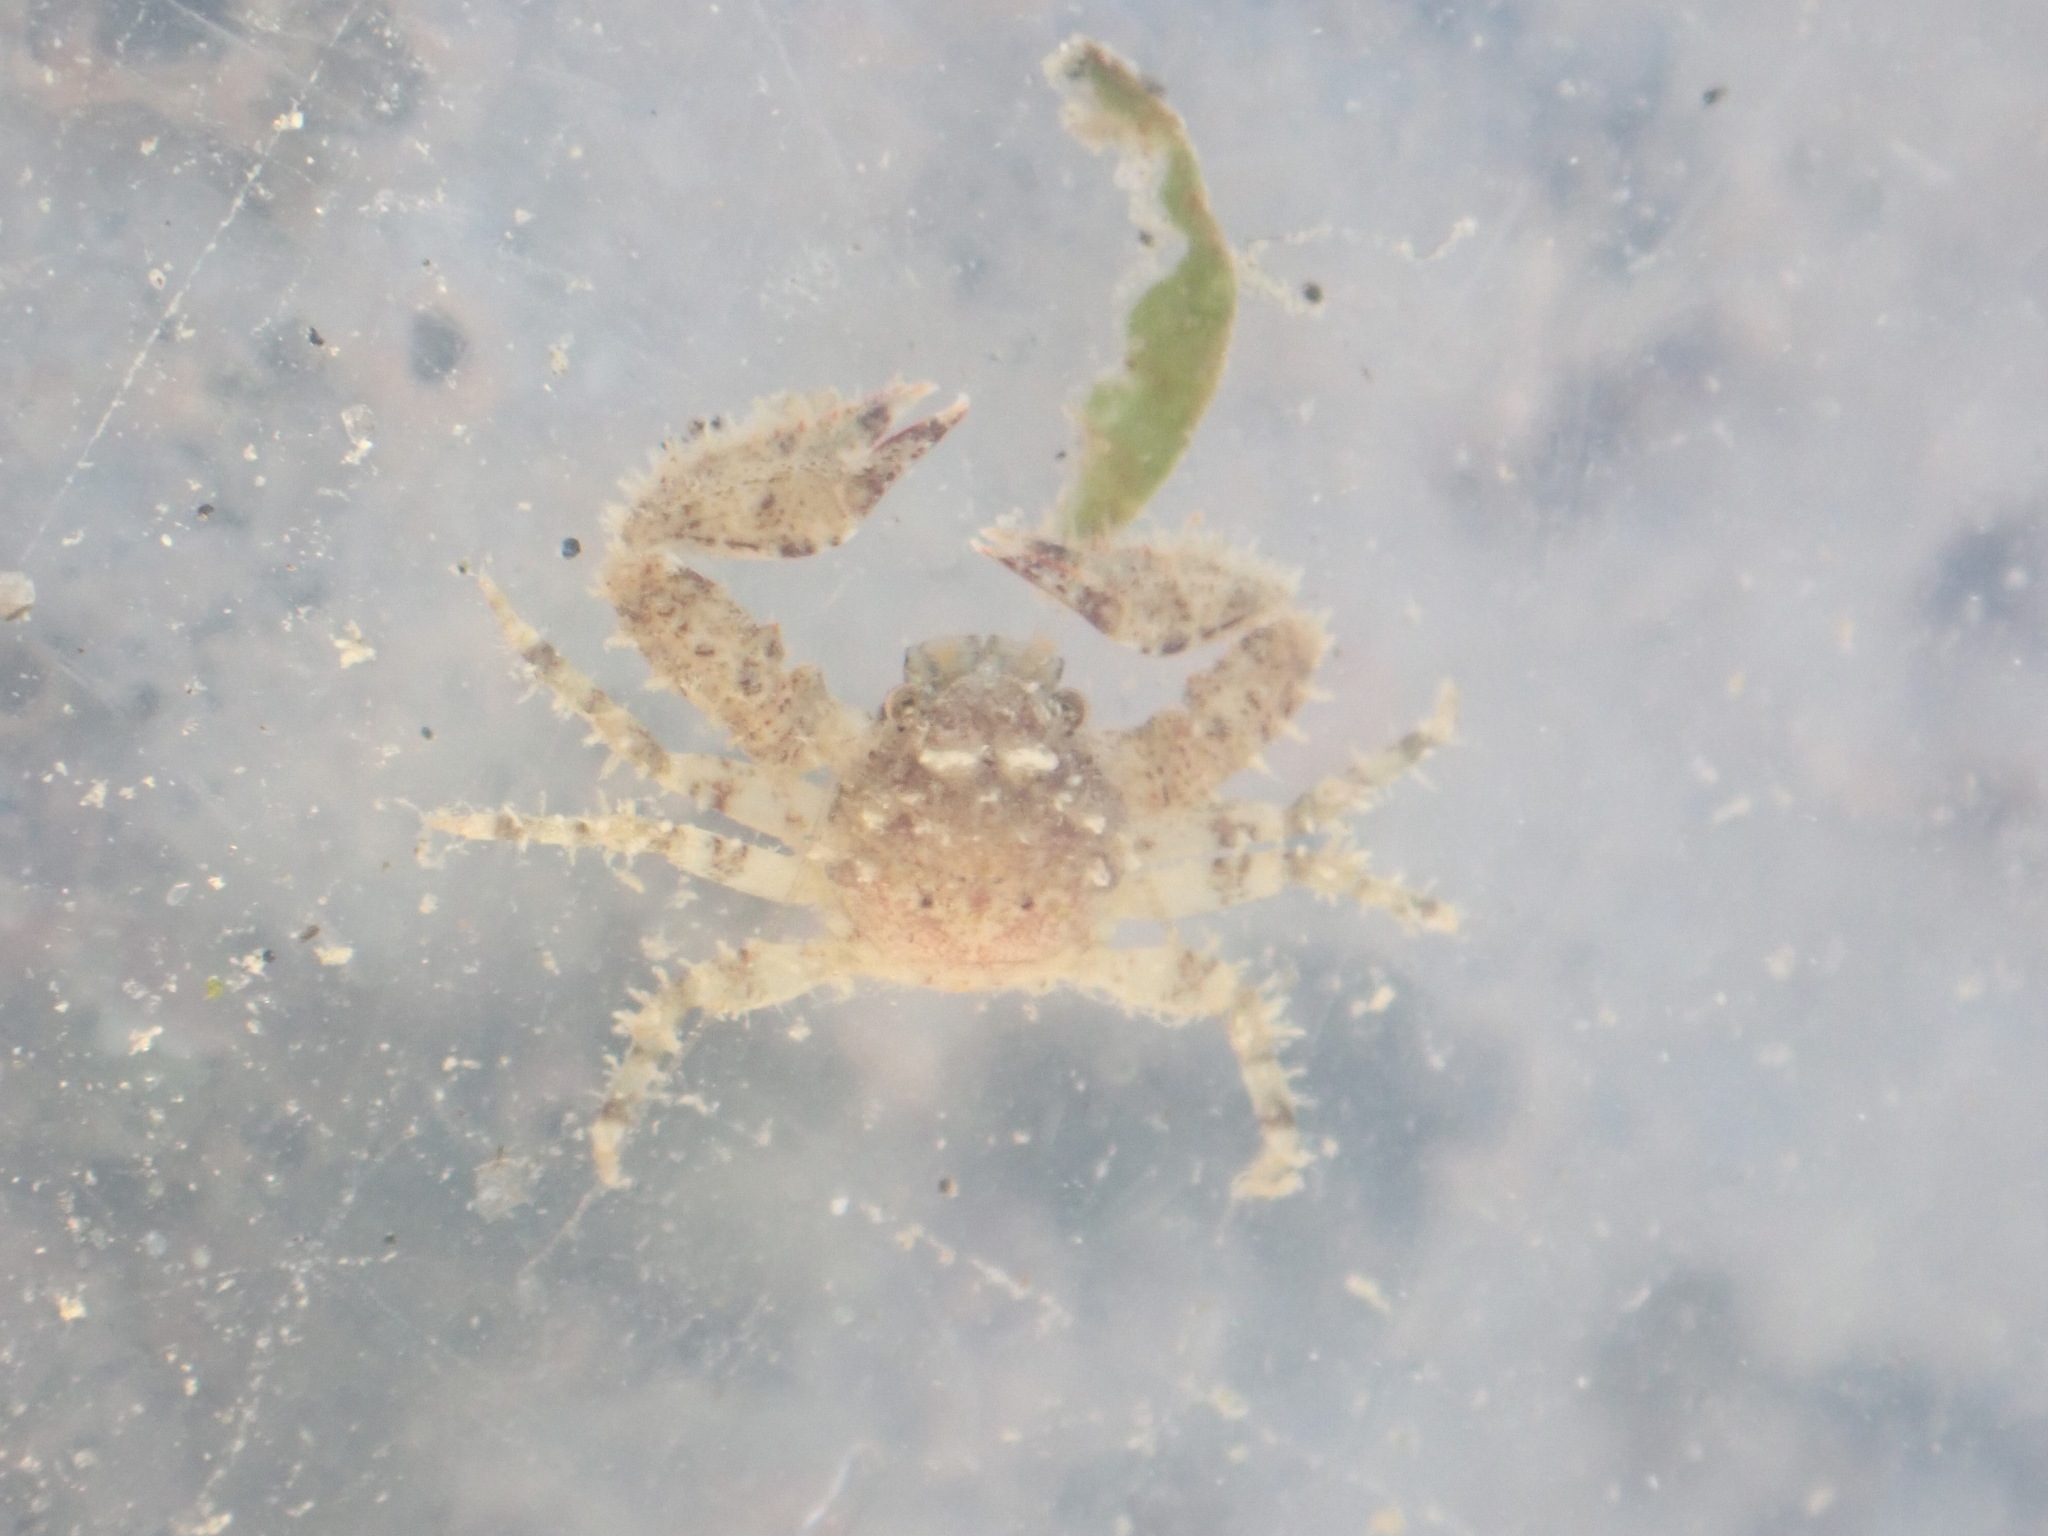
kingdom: Animalia
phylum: Arthropoda
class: Malacostraca
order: Decapoda
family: Porcellanidae
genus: Petrolisthes
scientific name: Petrolisthes novaezelandiae
